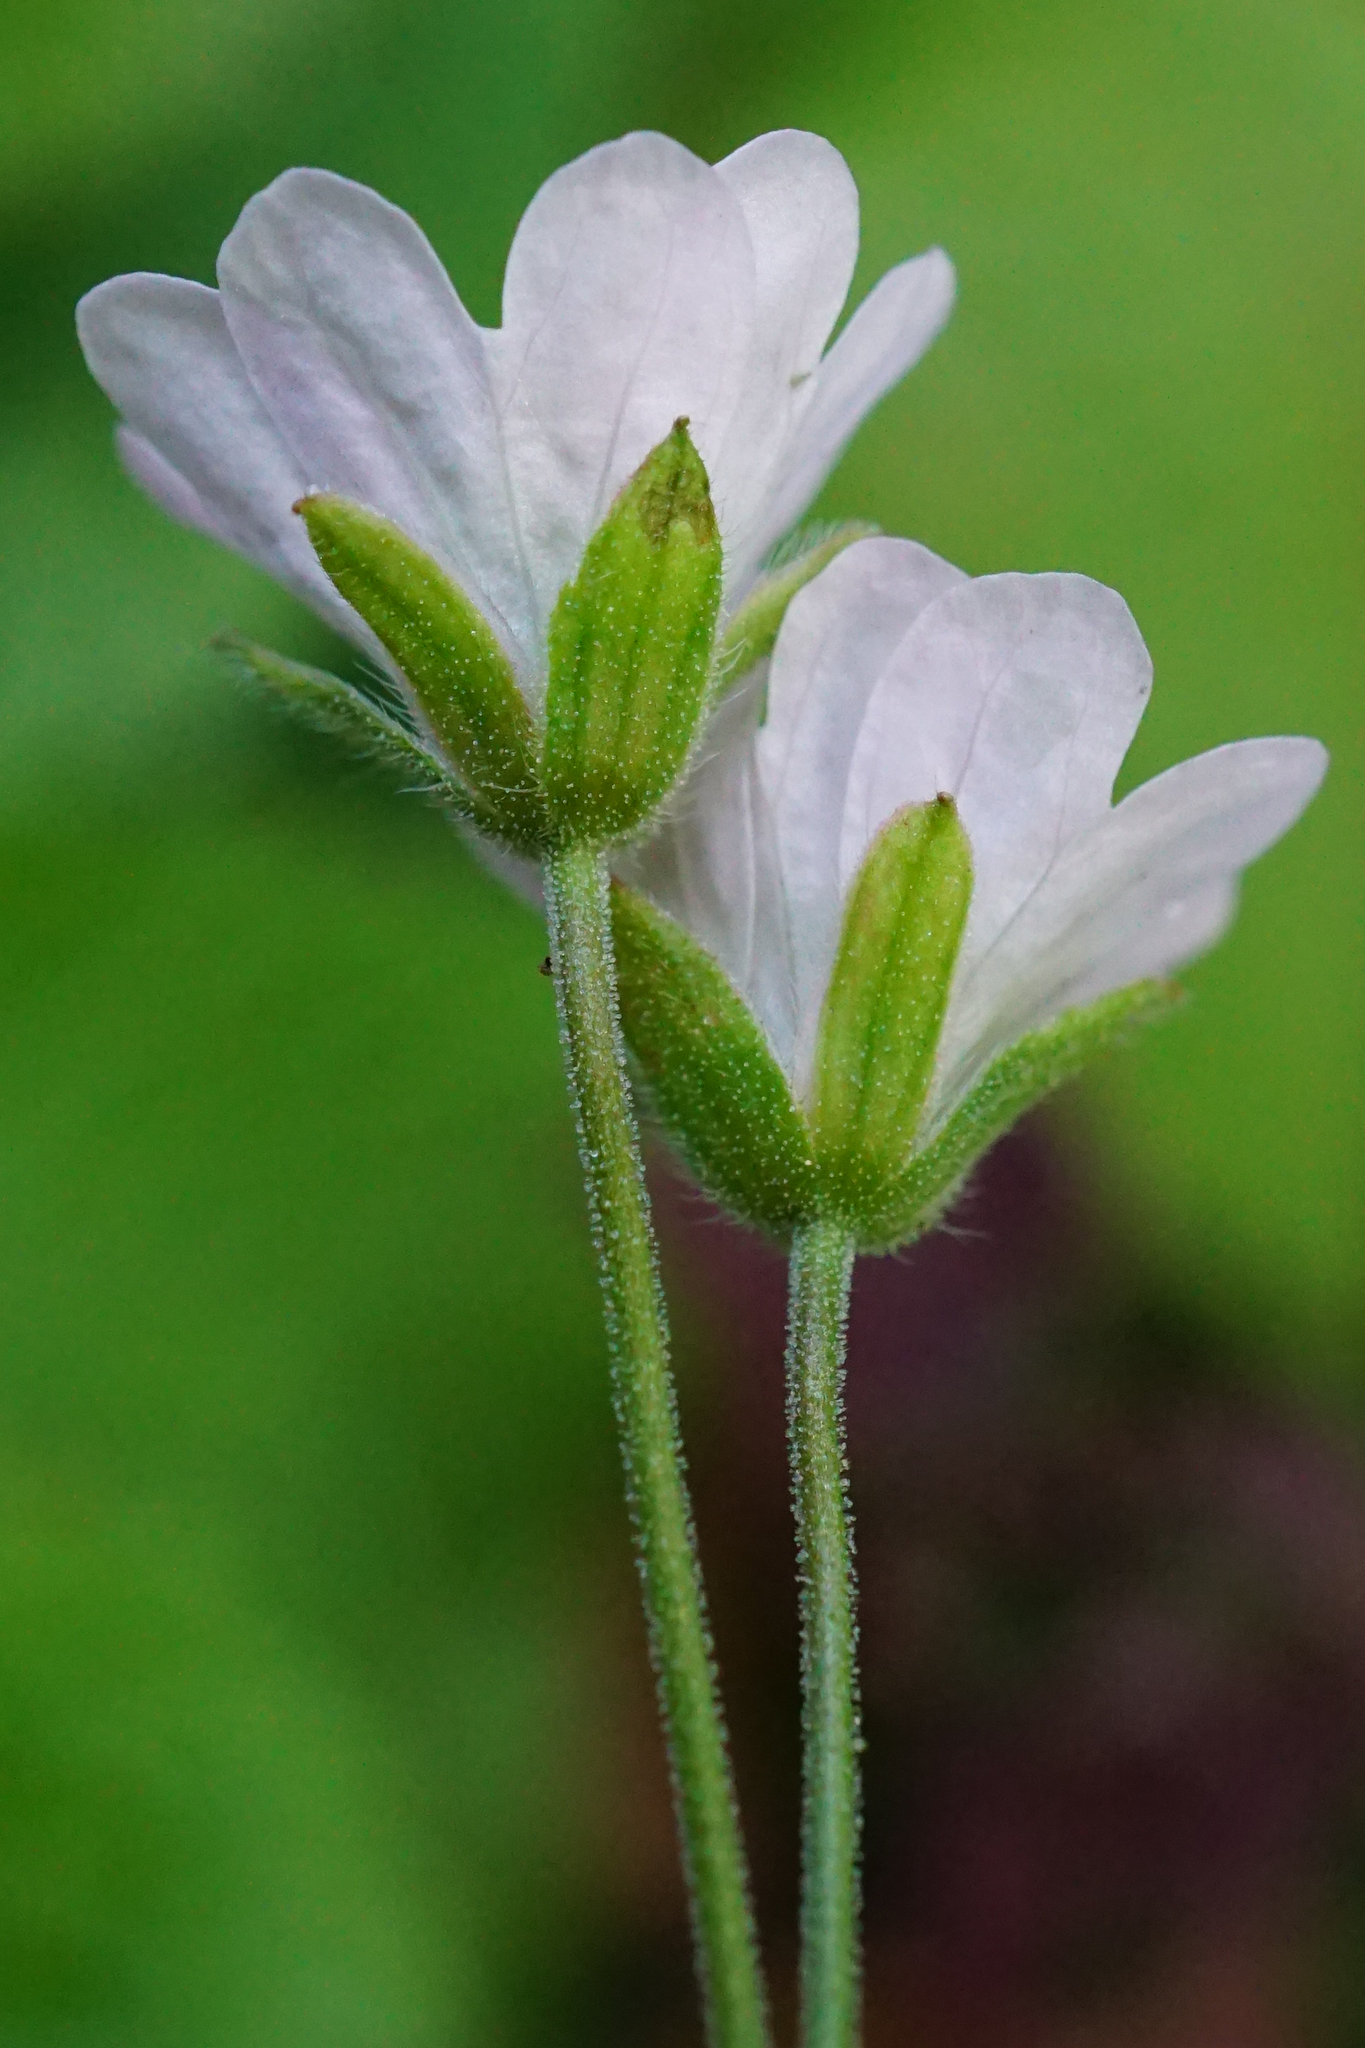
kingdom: Plantae
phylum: Tracheophyta
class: Magnoliopsida
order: Geraniales
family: Geraniaceae
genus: Geranium
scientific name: Geranium pyrenaicum
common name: Hedgerow crane's-bill
